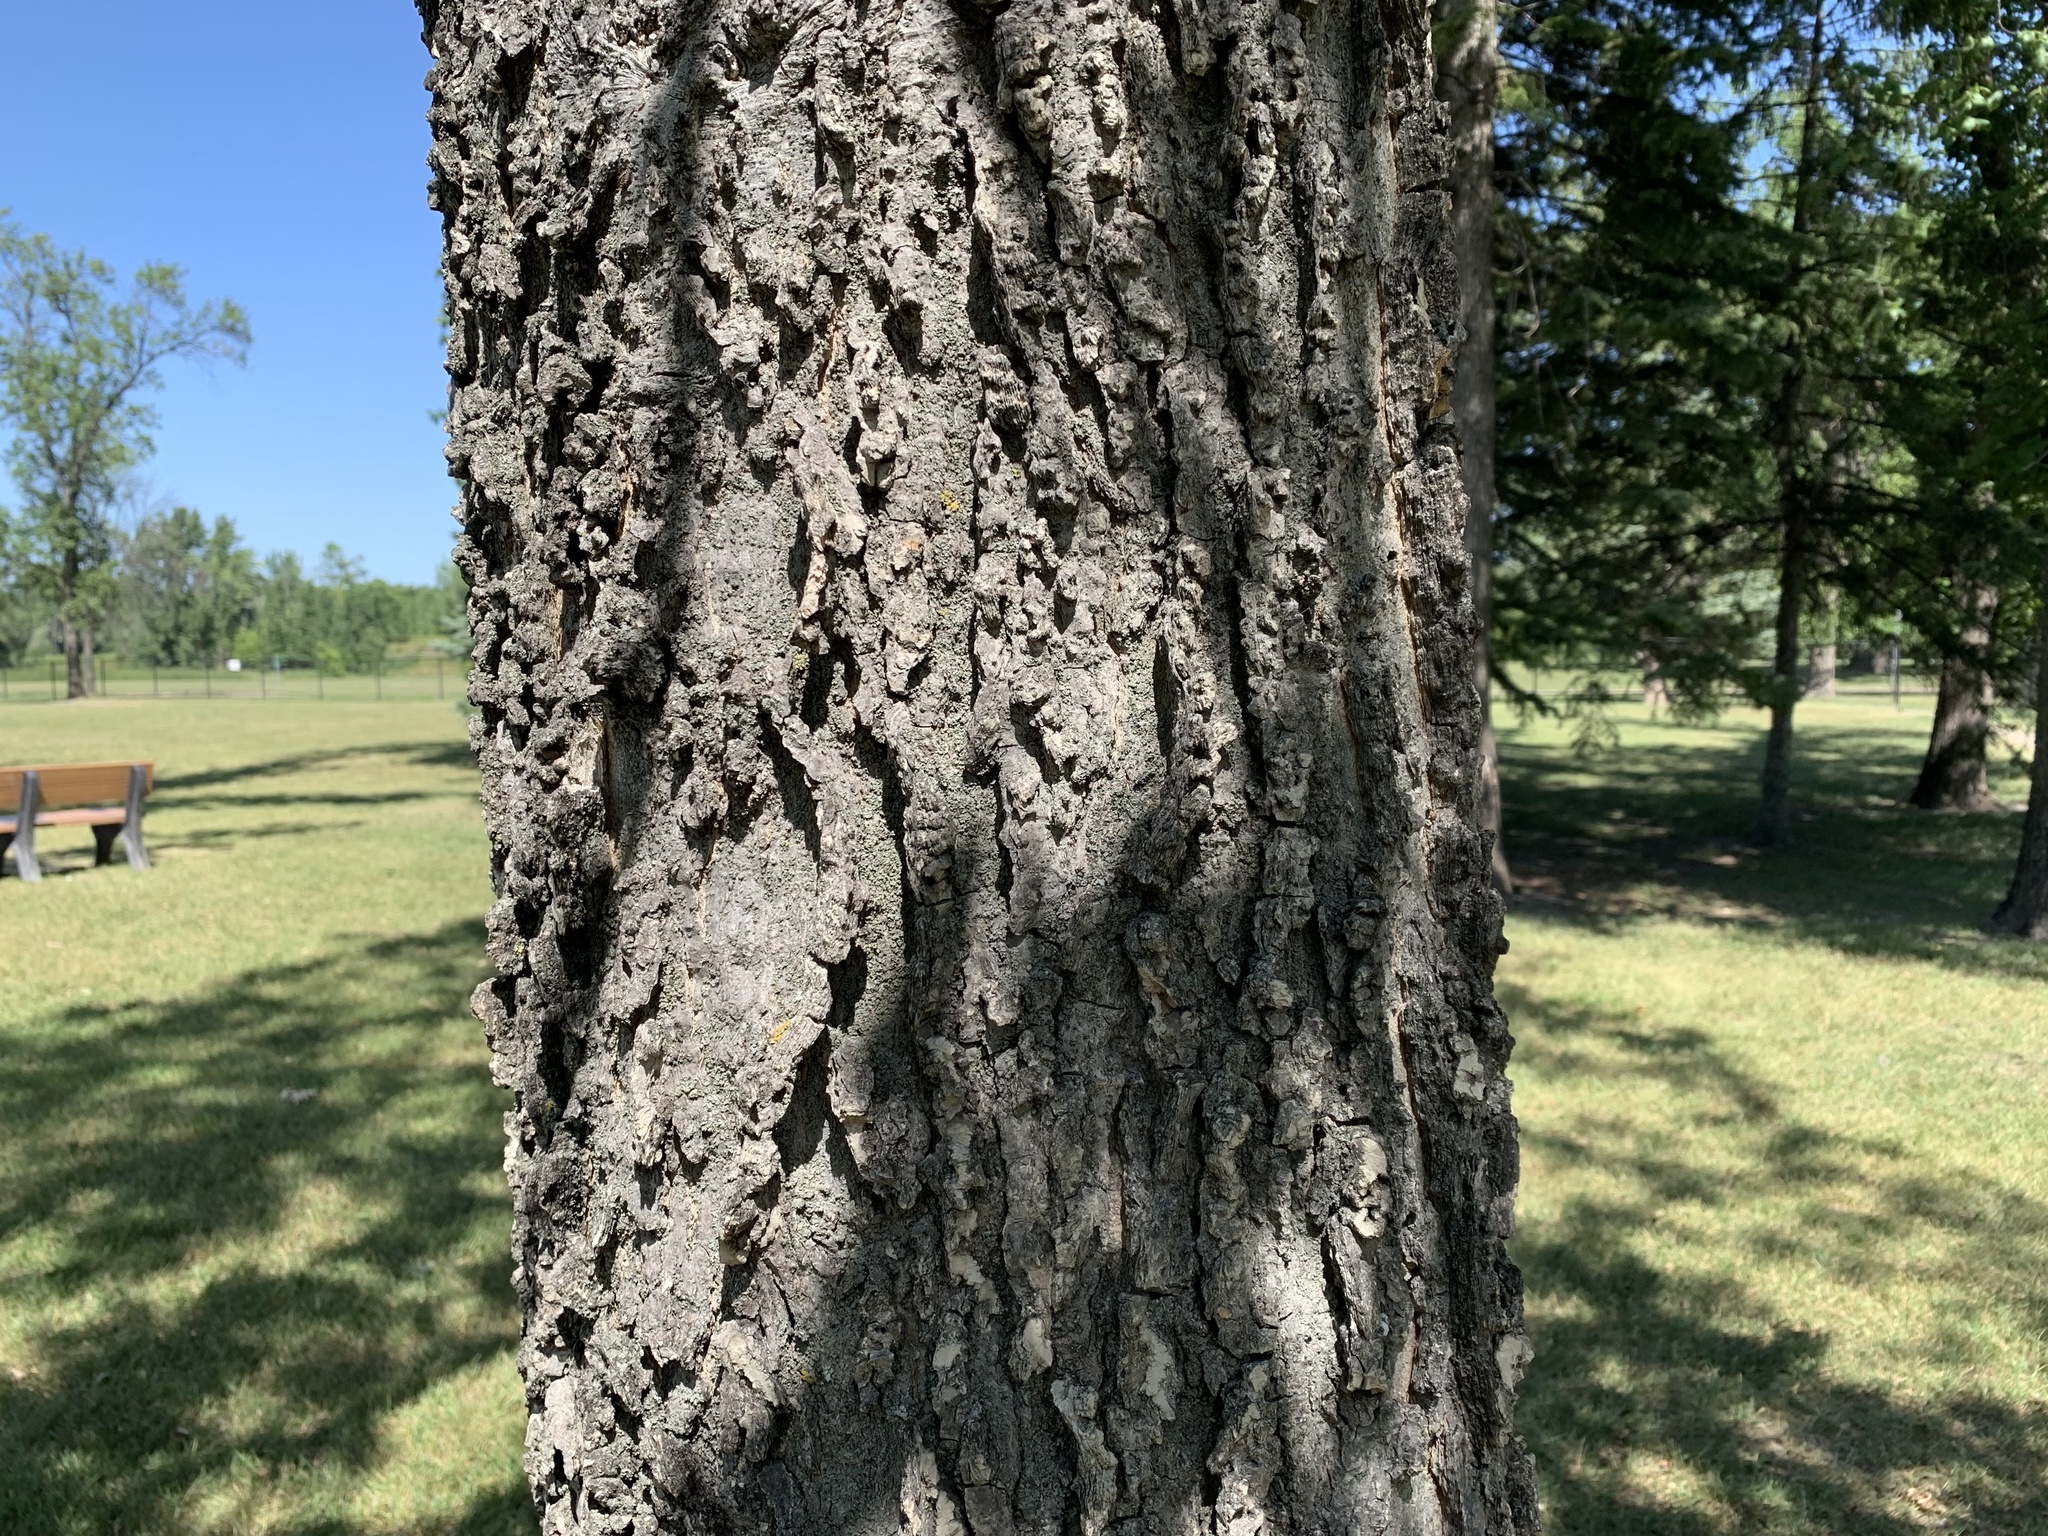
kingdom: Plantae
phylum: Tracheophyta
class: Magnoliopsida
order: Rosales
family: Cannabaceae
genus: Celtis
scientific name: Celtis occidentalis
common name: Common hackberry
